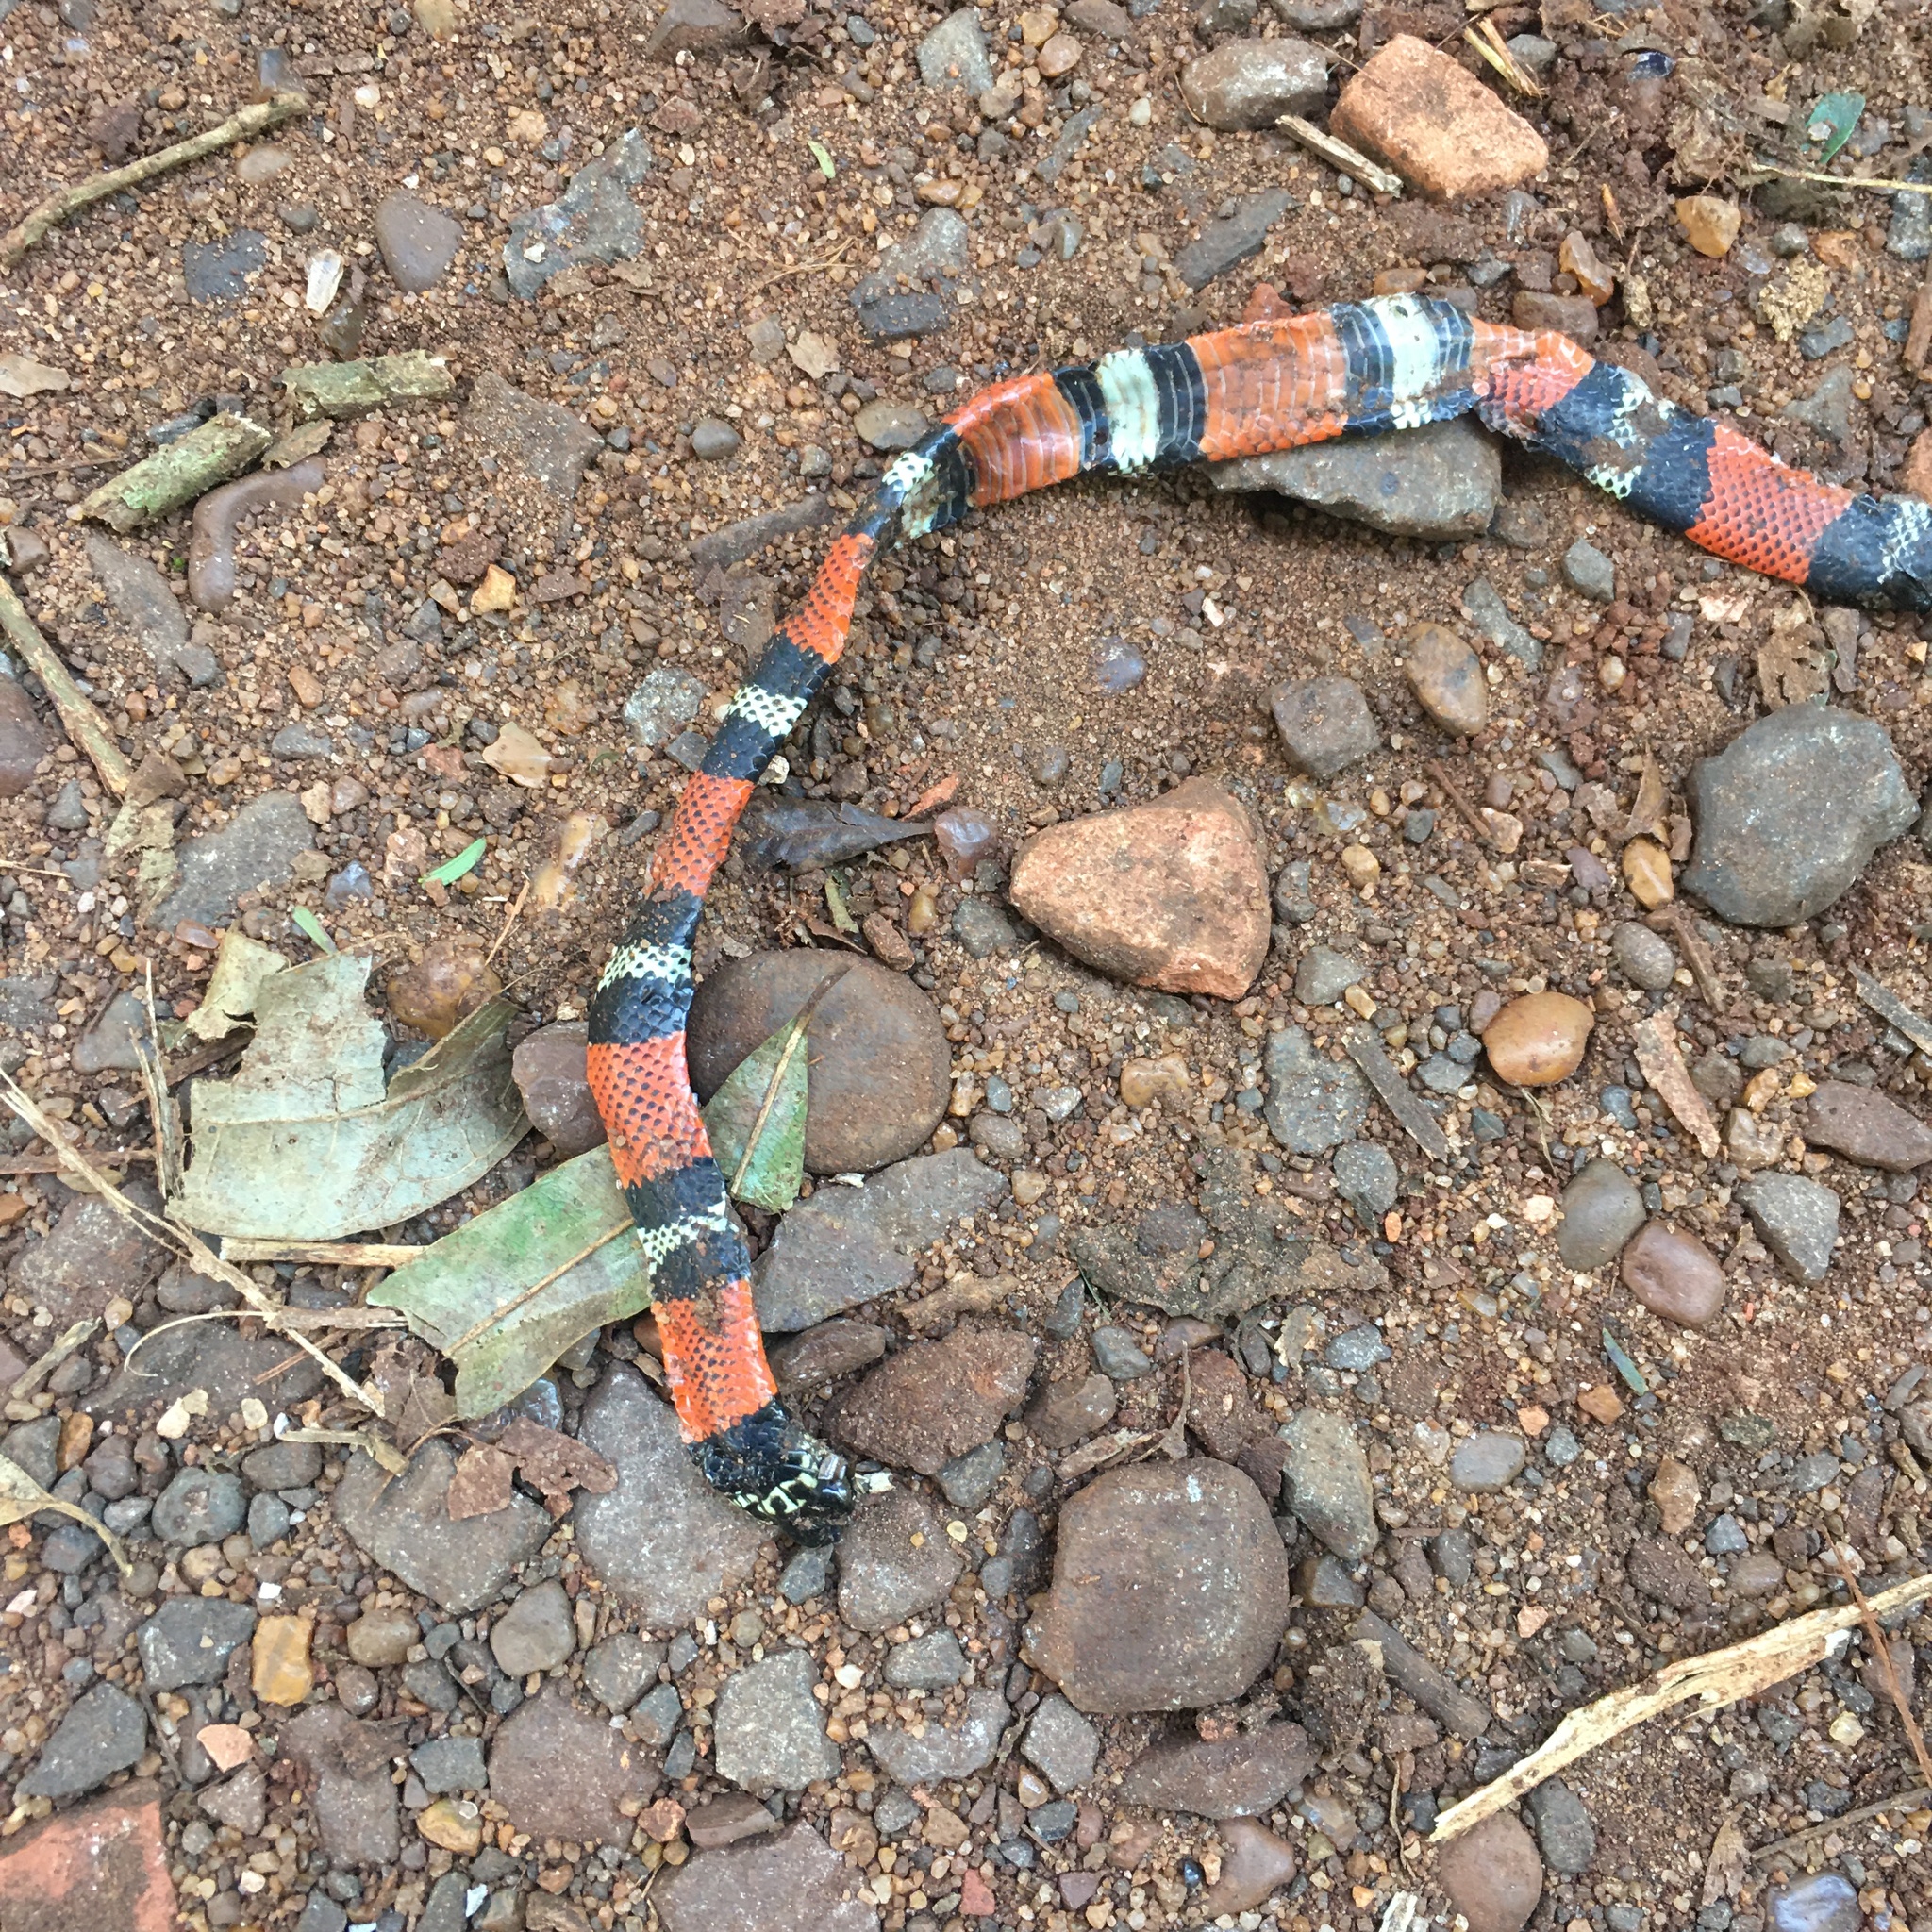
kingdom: Animalia
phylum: Chordata
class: Squamata
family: Colubridae
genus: Erythrolamprus
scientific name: Erythrolamprus aesculapii
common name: Aesculapian false coral snake
